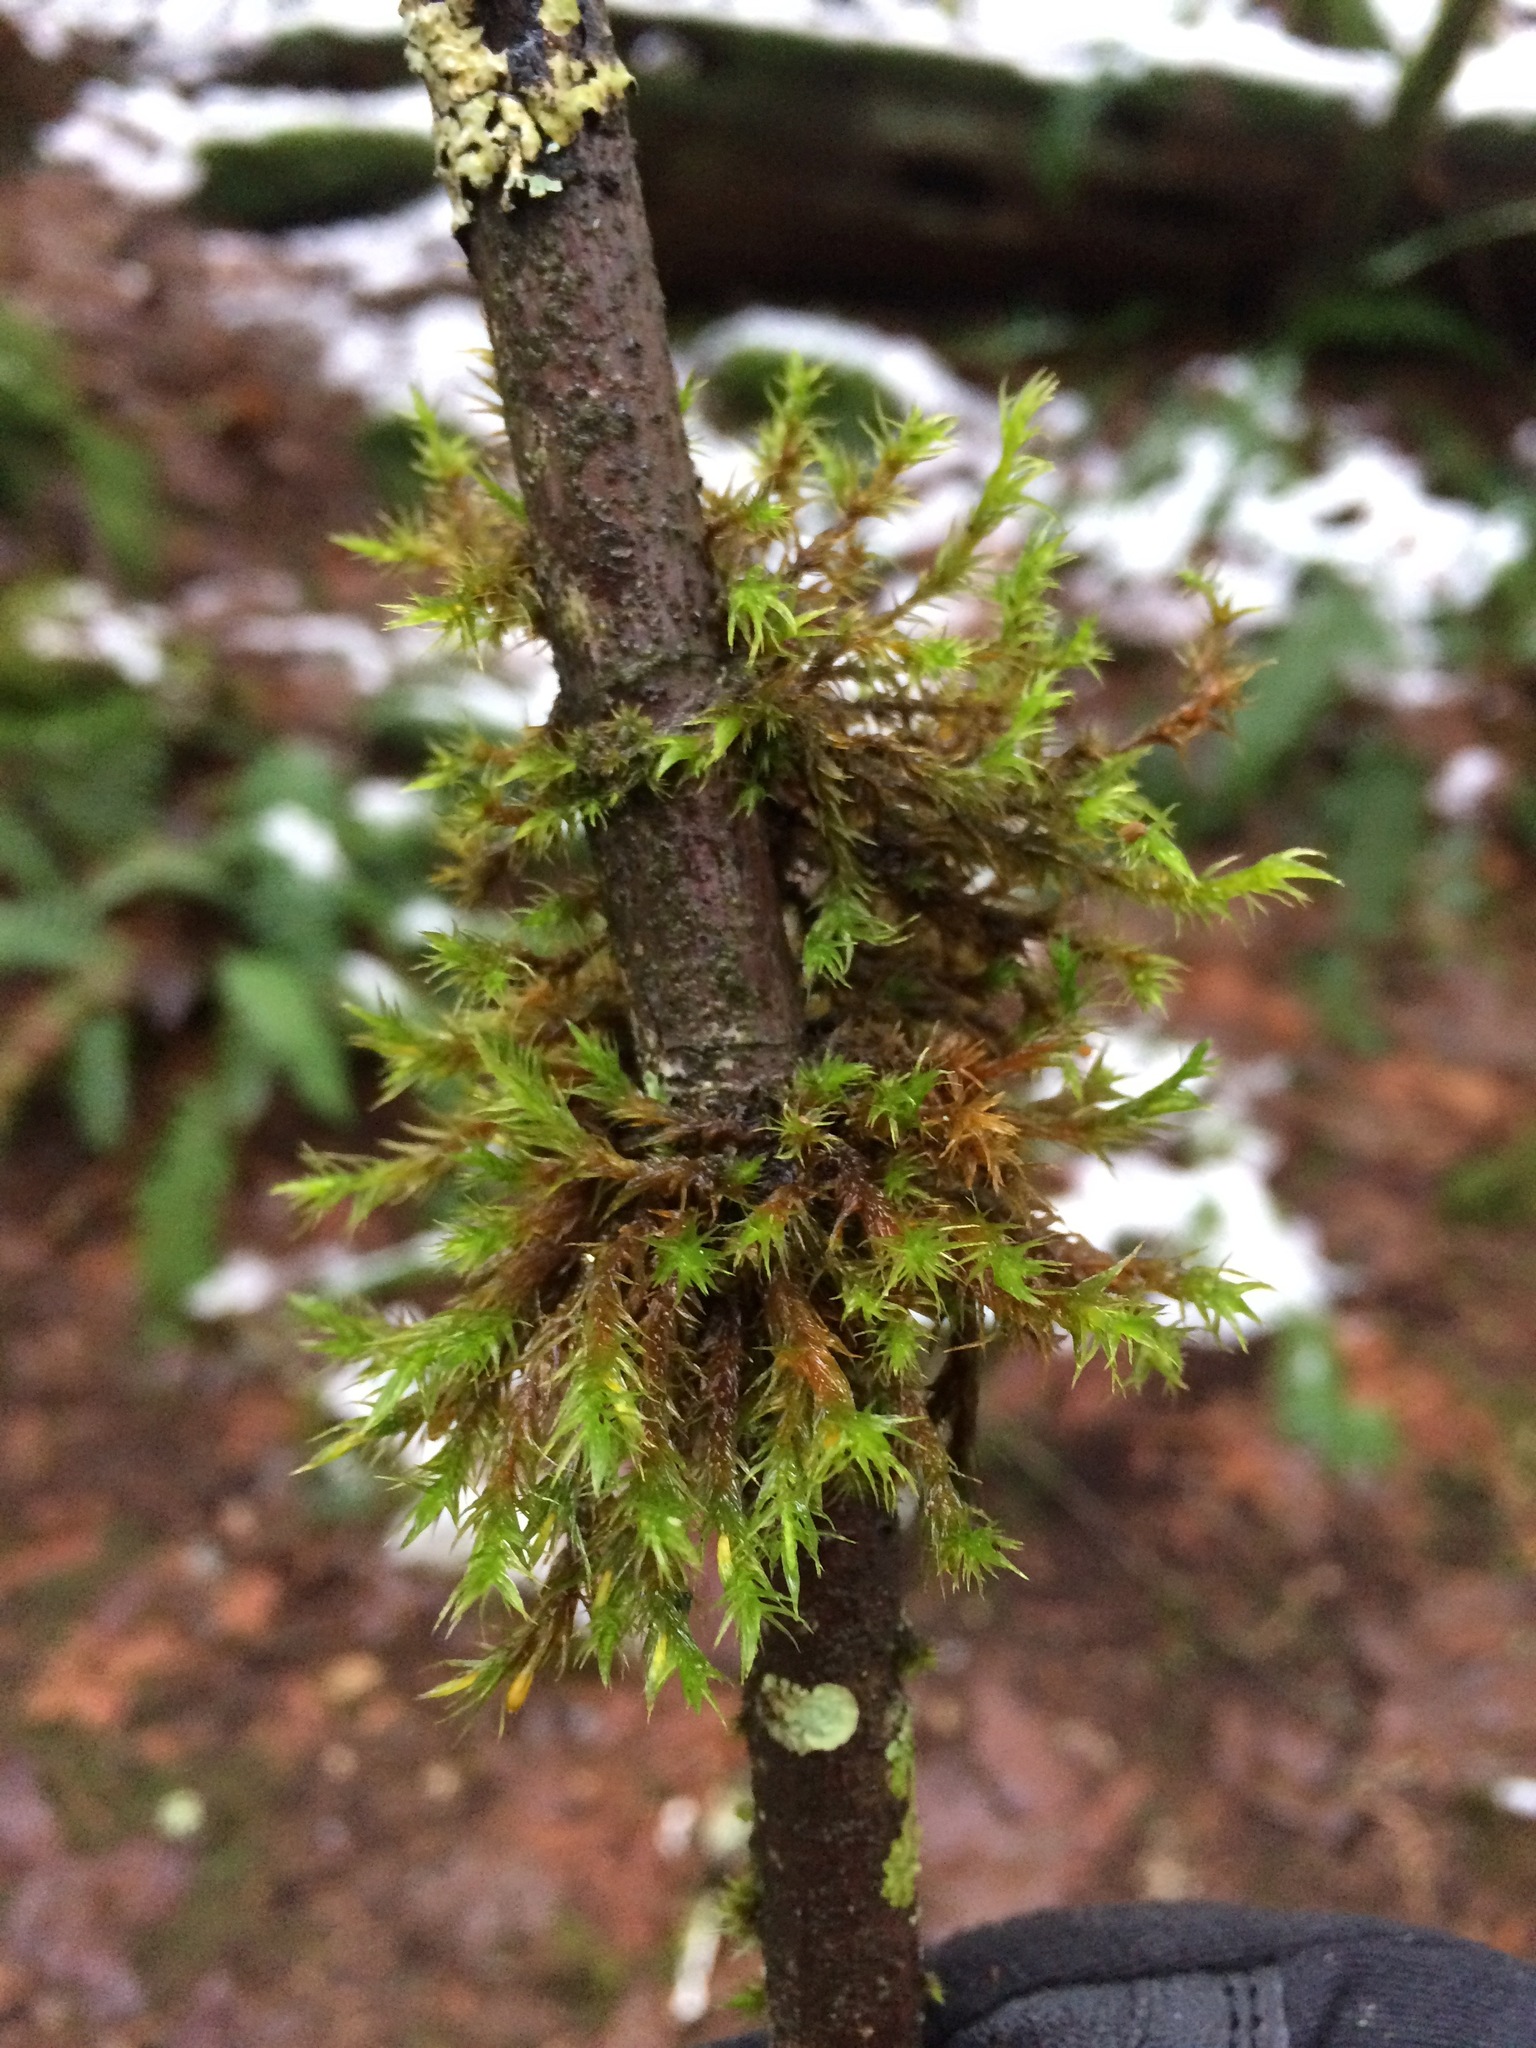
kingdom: Plantae
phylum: Bryophyta
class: Bryopsida
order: Orthotrichales
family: Orthotrichaceae
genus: Pulvigera
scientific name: Pulvigera lyellii
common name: Lyell's bristle-moss
